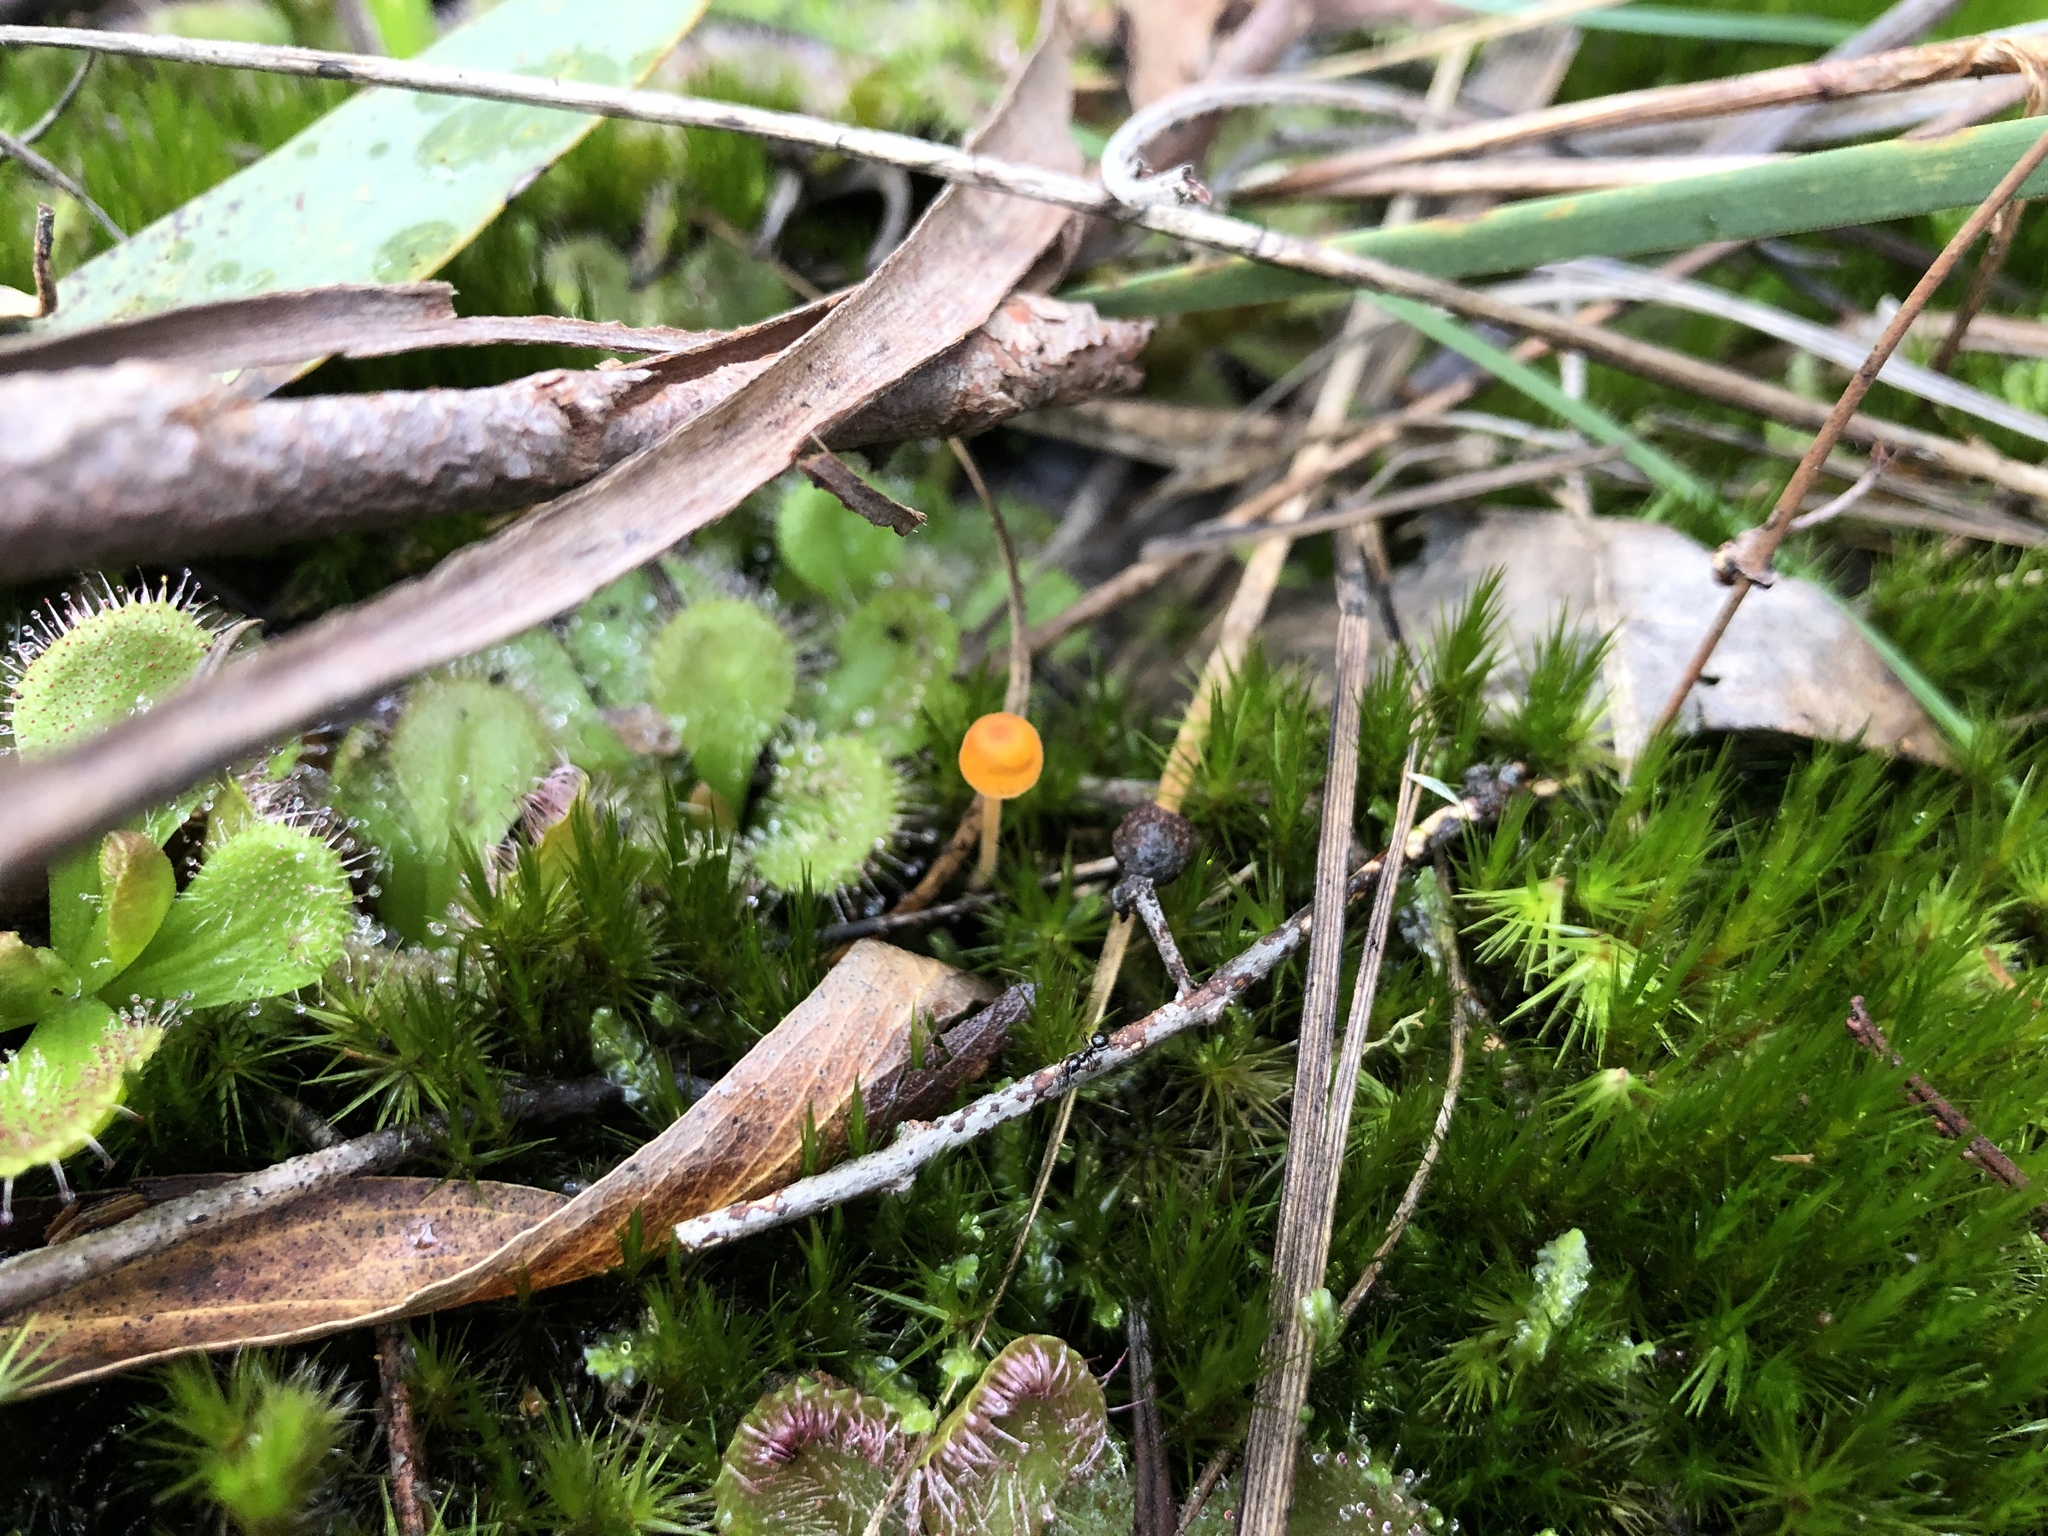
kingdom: Fungi
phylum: Basidiomycota
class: Agaricomycetes
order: Hymenochaetales
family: Rickenellaceae
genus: Rickenella
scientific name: Rickenella fibula
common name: Orange mosscap
